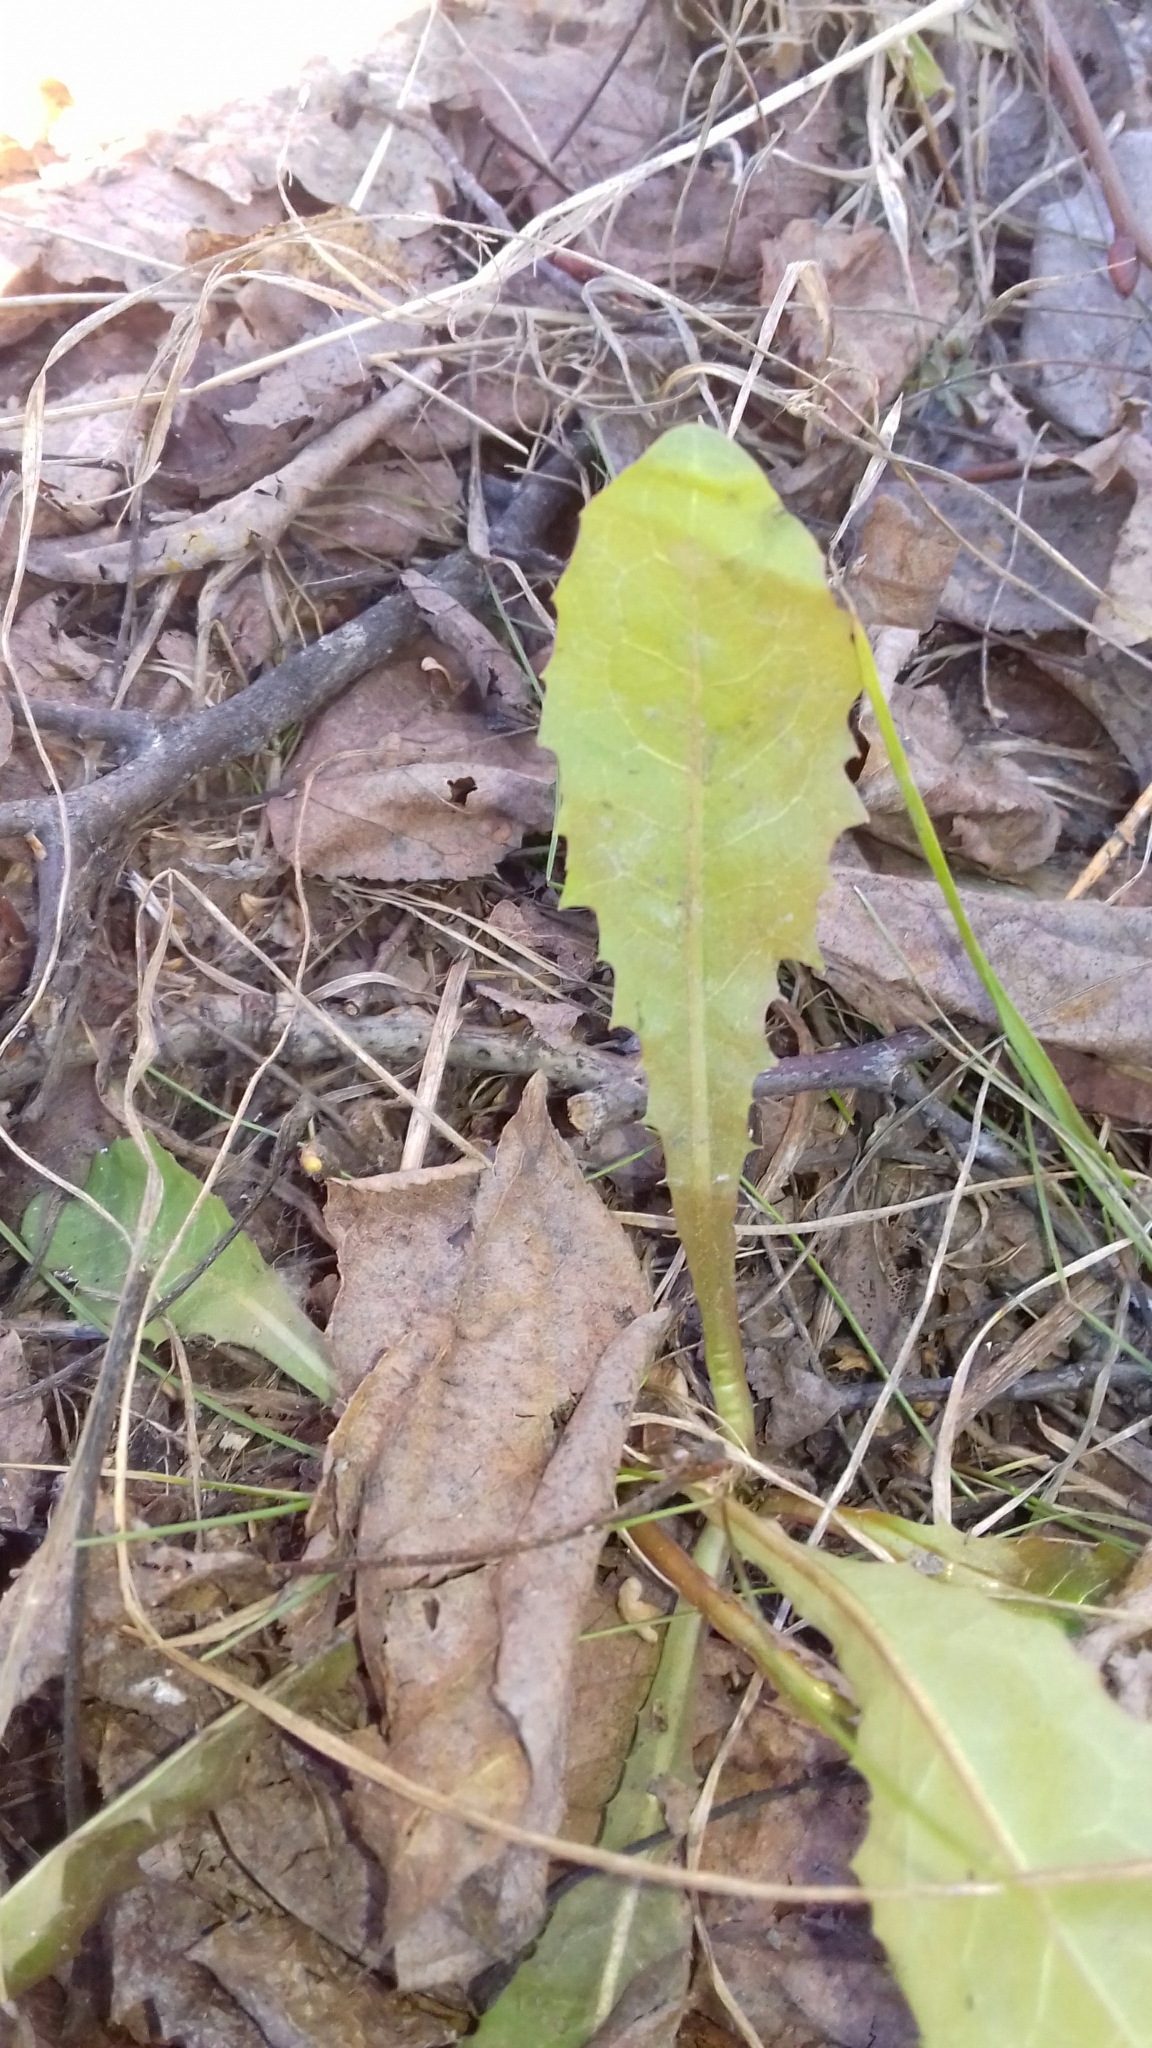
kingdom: Plantae
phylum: Tracheophyta
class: Magnoliopsida
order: Asterales
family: Asteraceae
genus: Taraxacum
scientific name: Taraxacum officinale
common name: Common dandelion
